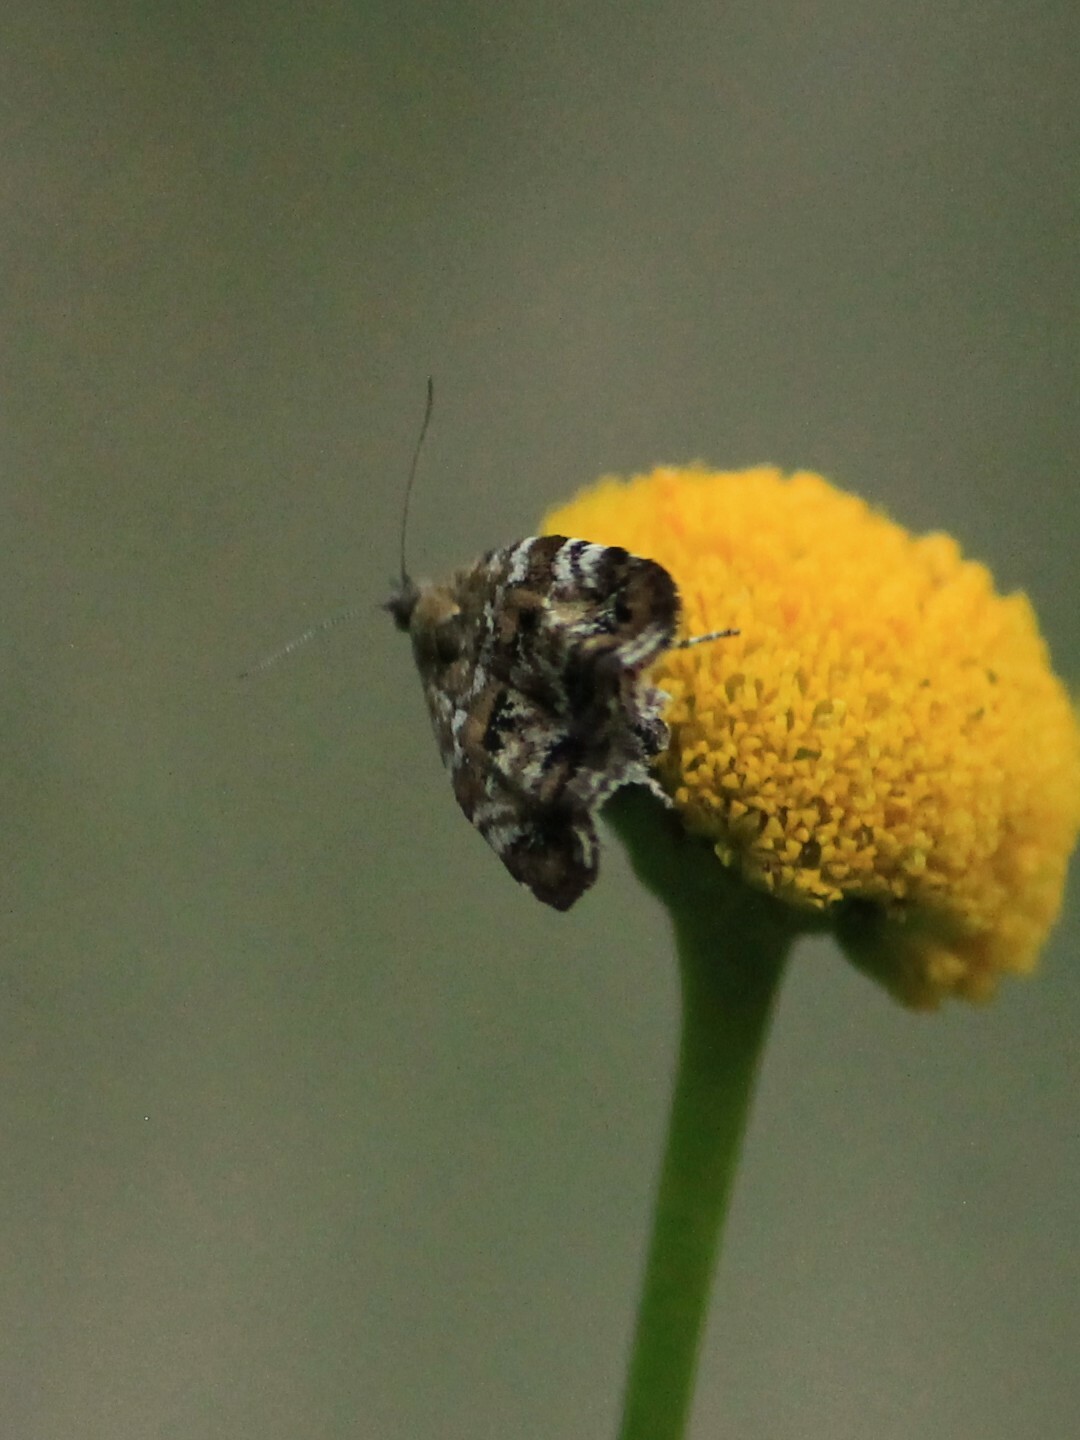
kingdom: Animalia
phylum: Arthropoda
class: Insecta
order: Lepidoptera
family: Choreutidae
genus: Choreutis
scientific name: Choreutis diana
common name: Inverness twitcher
